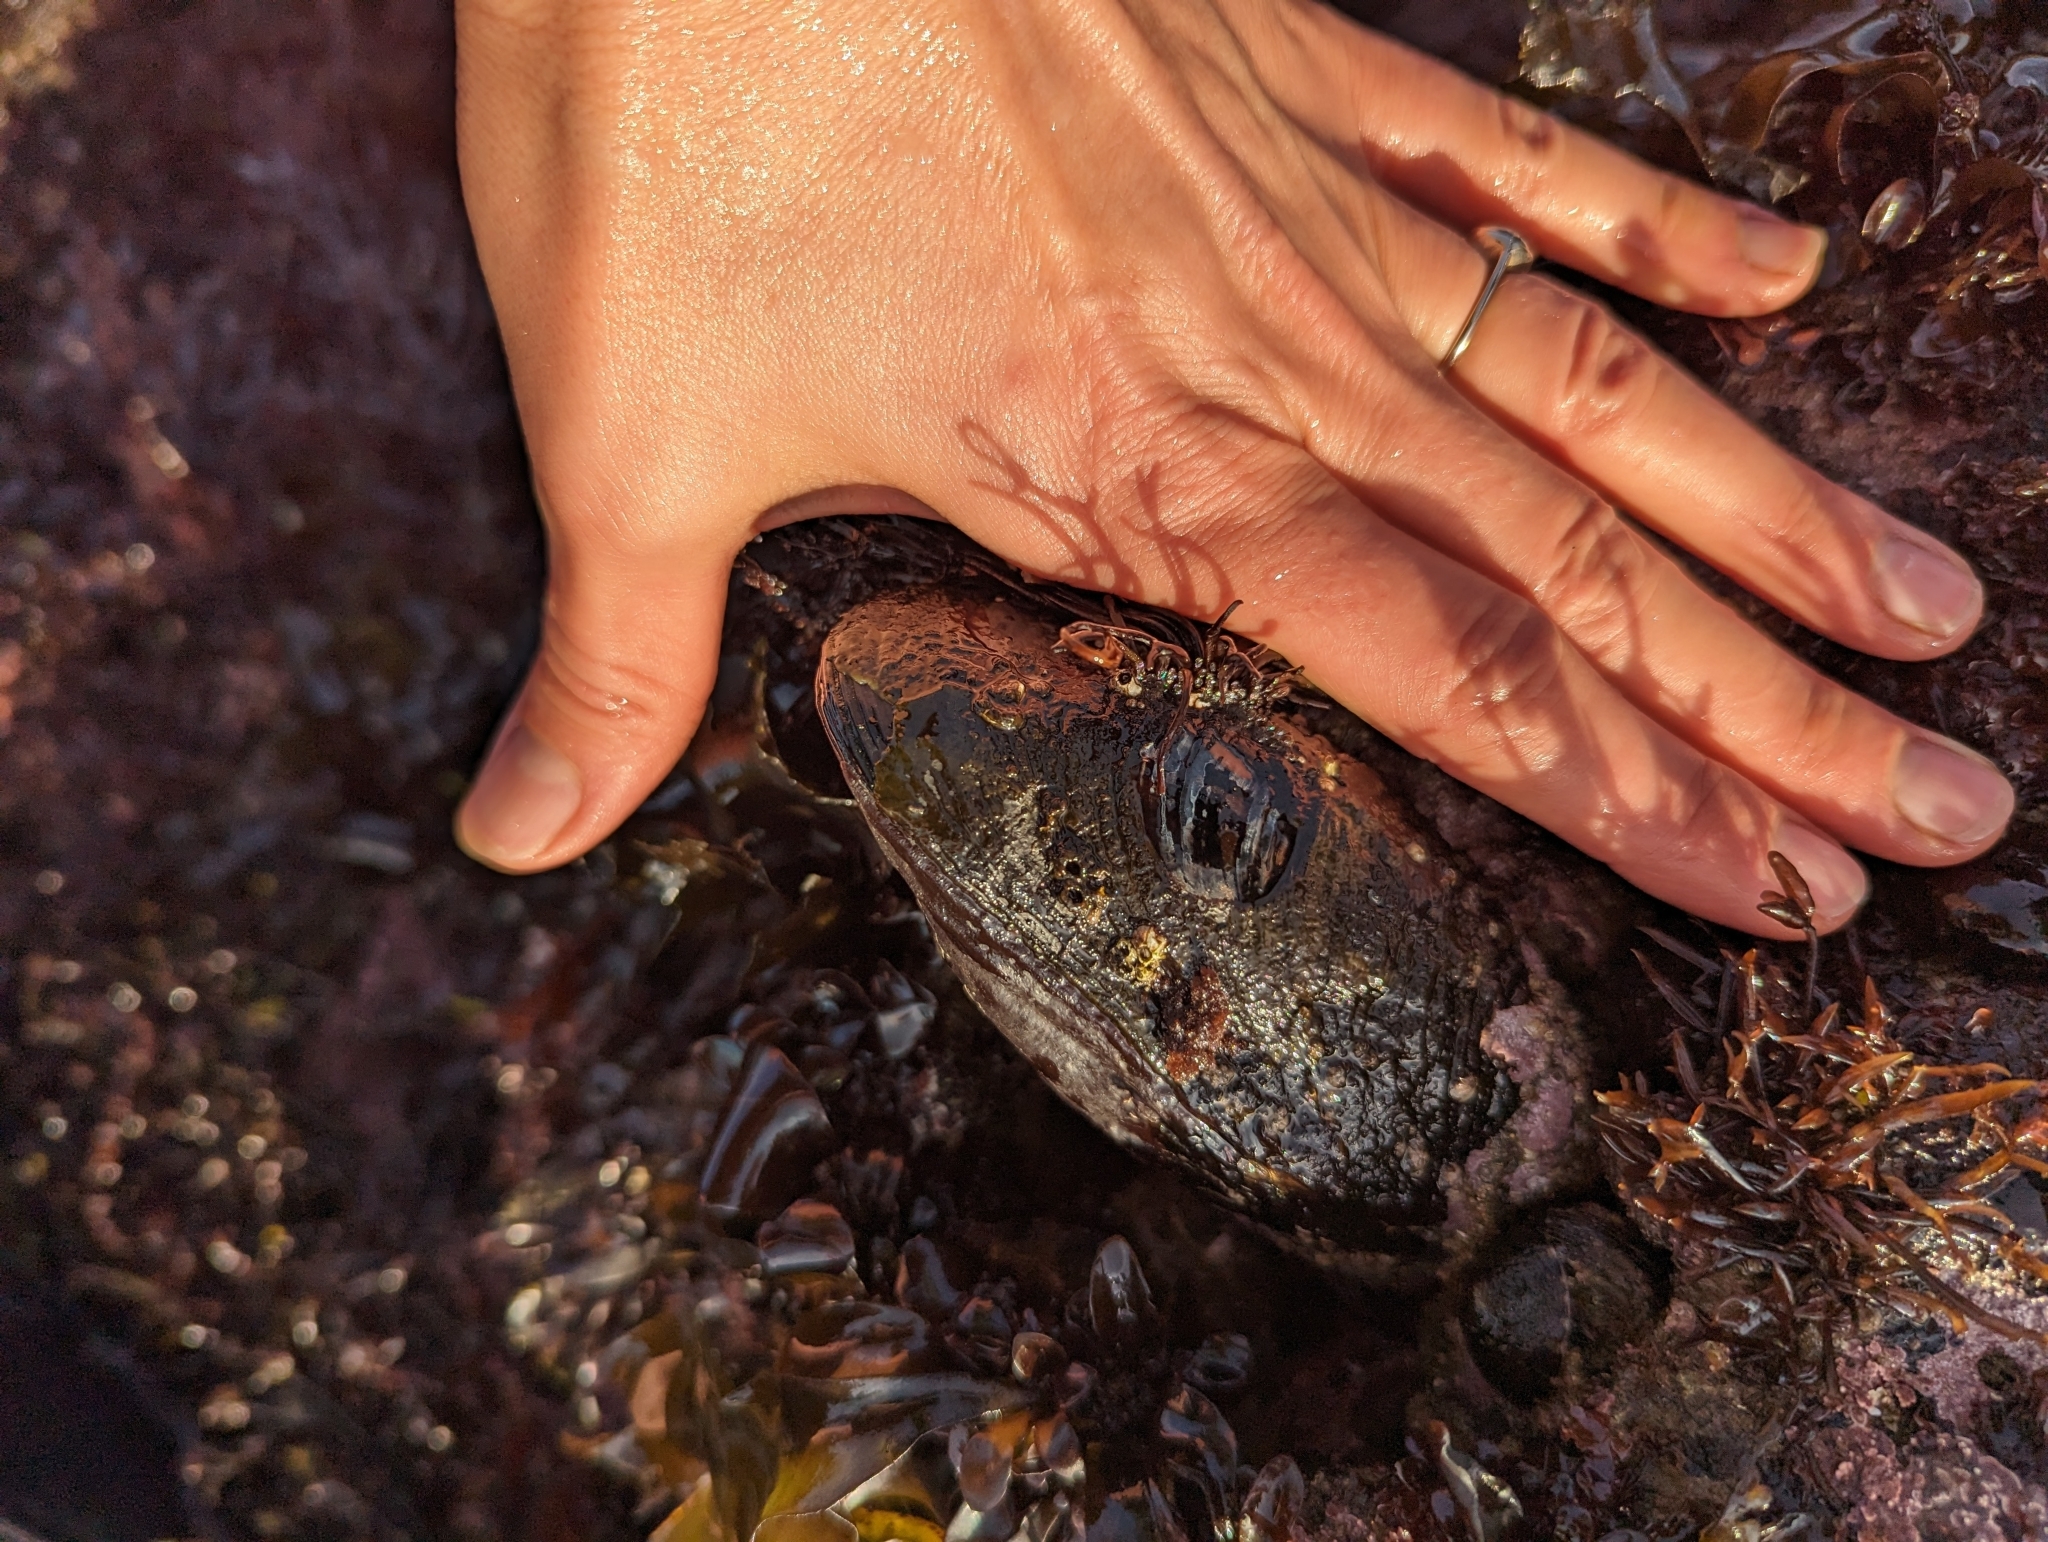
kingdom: Animalia
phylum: Mollusca
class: Bivalvia
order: Mytilida
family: Mytilidae
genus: Mytilus
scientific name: Mytilus californianus
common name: California mussel
